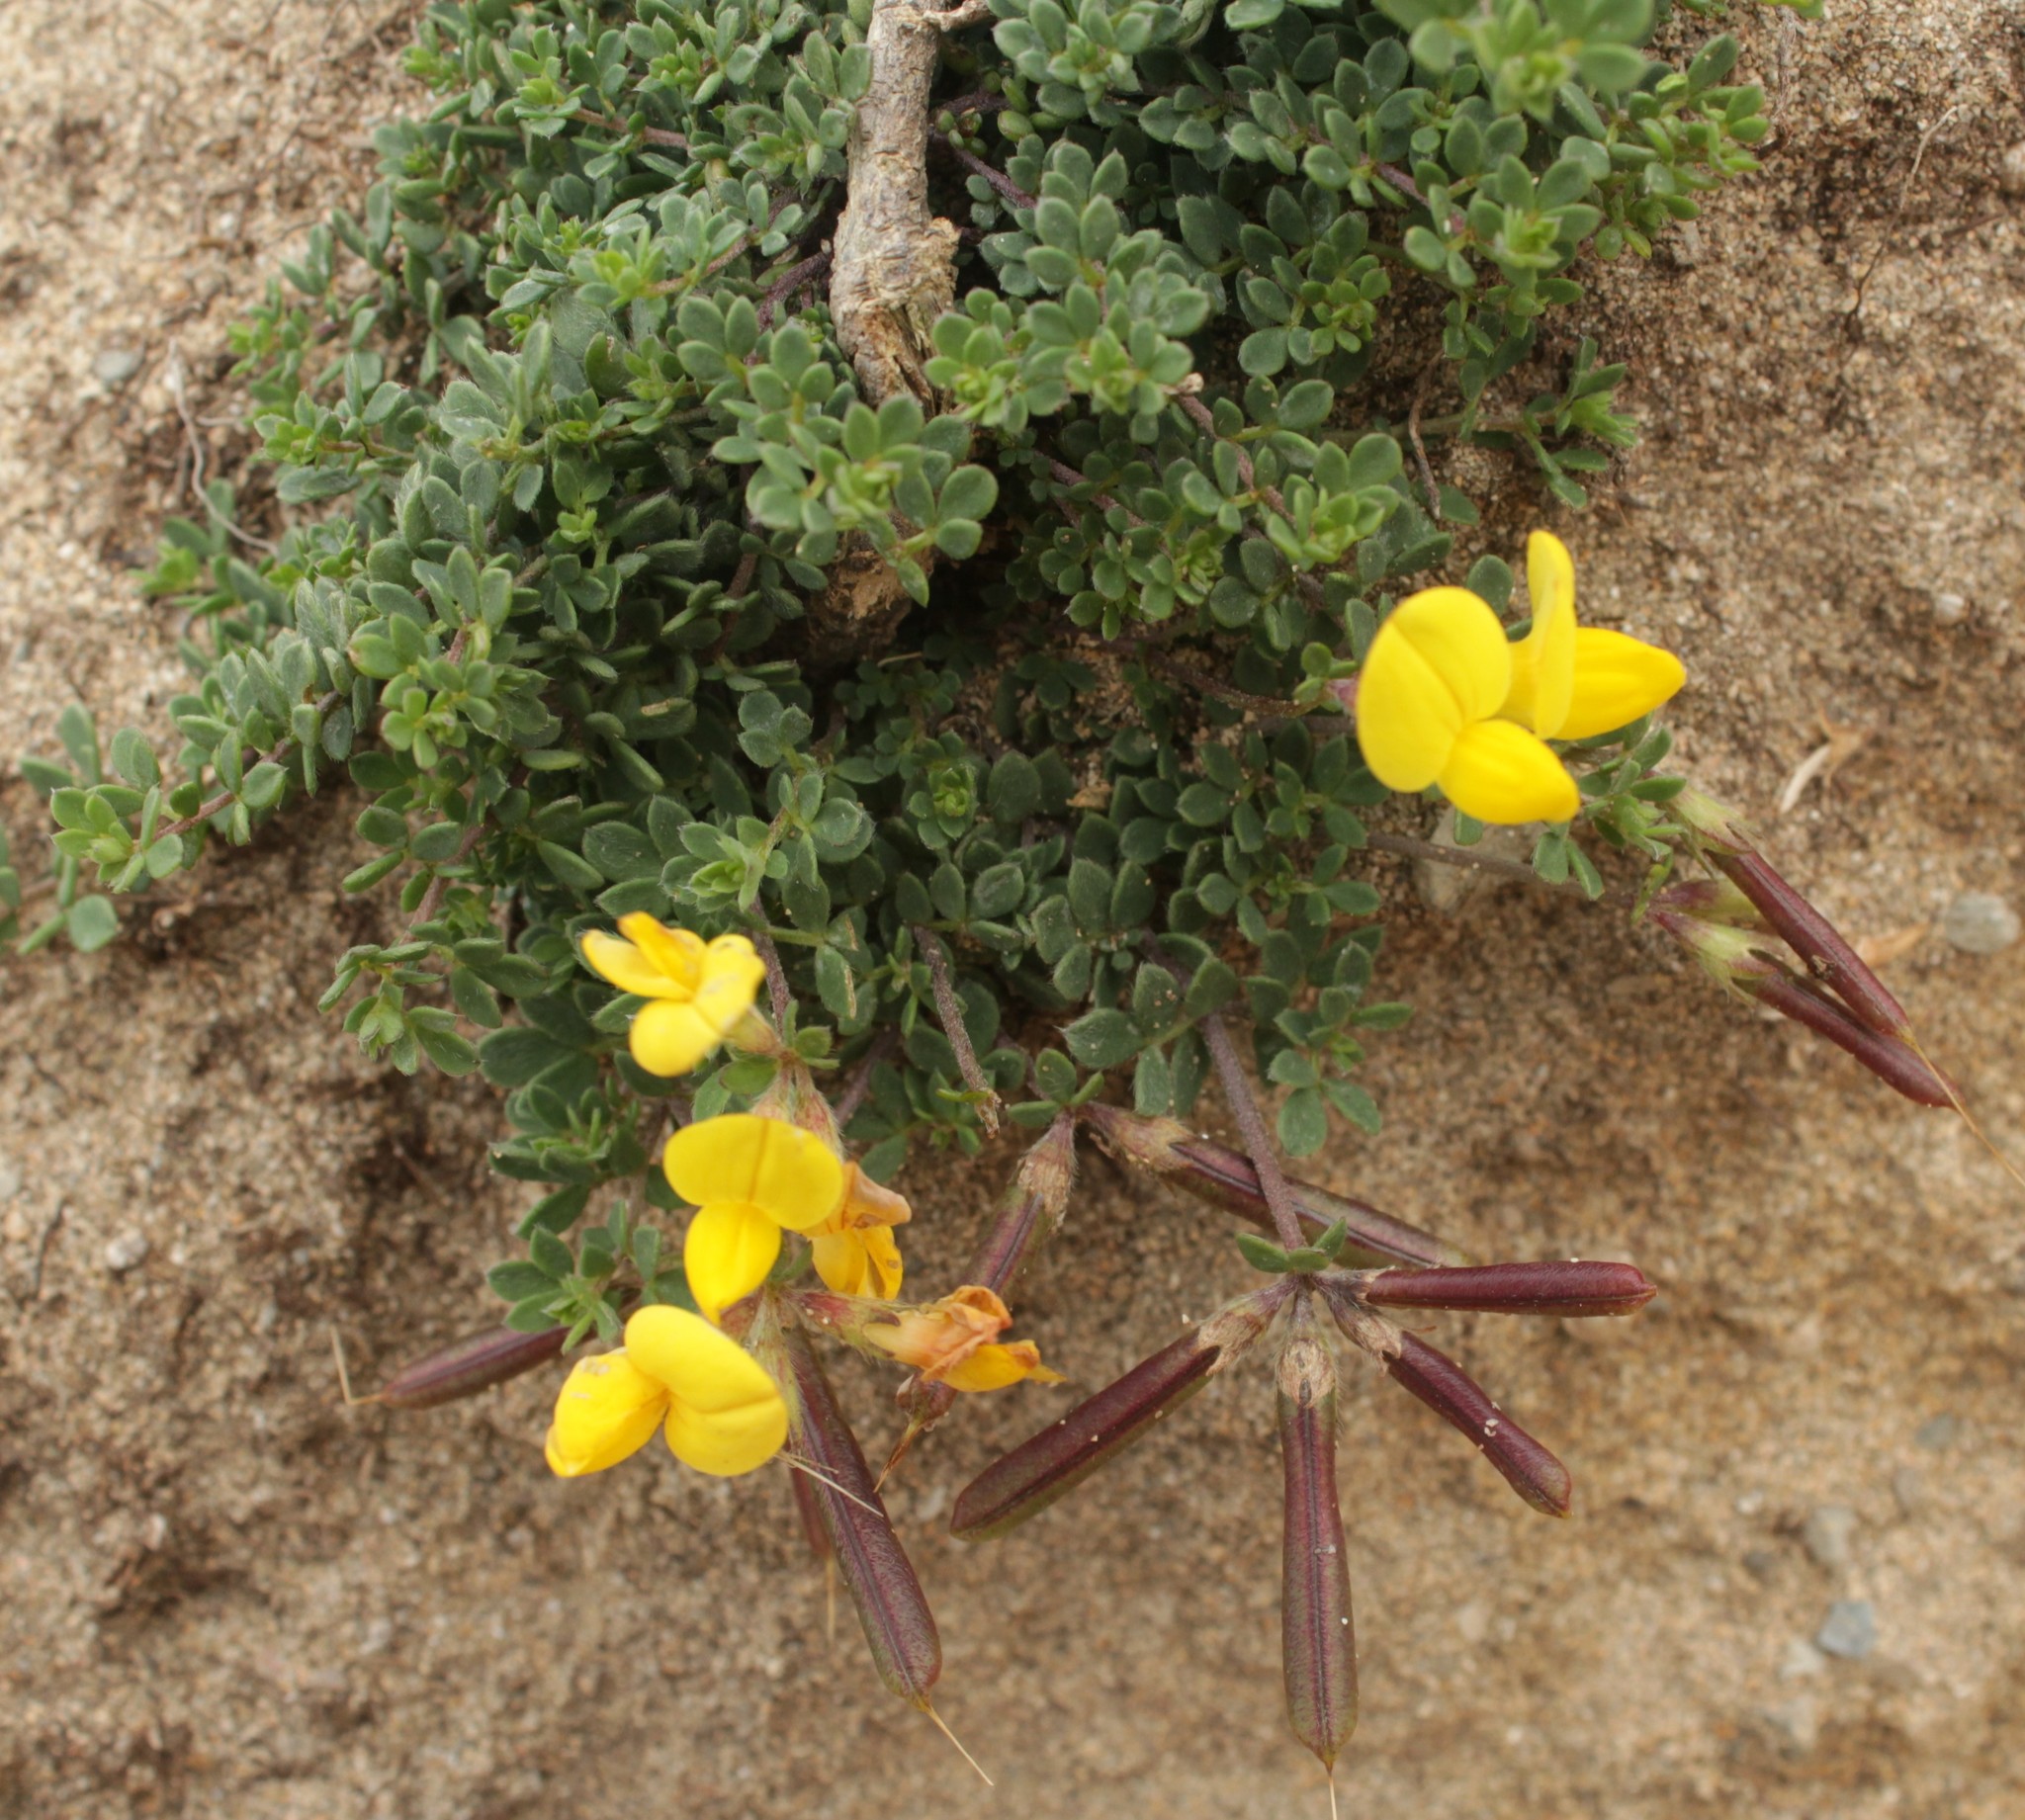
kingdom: Plantae
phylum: Tracheophyta
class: Magnoliopsida
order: Fabales
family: Fabaceae
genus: Lotus
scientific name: Lotus corniculatus
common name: Common bird's-foot-trefoil
